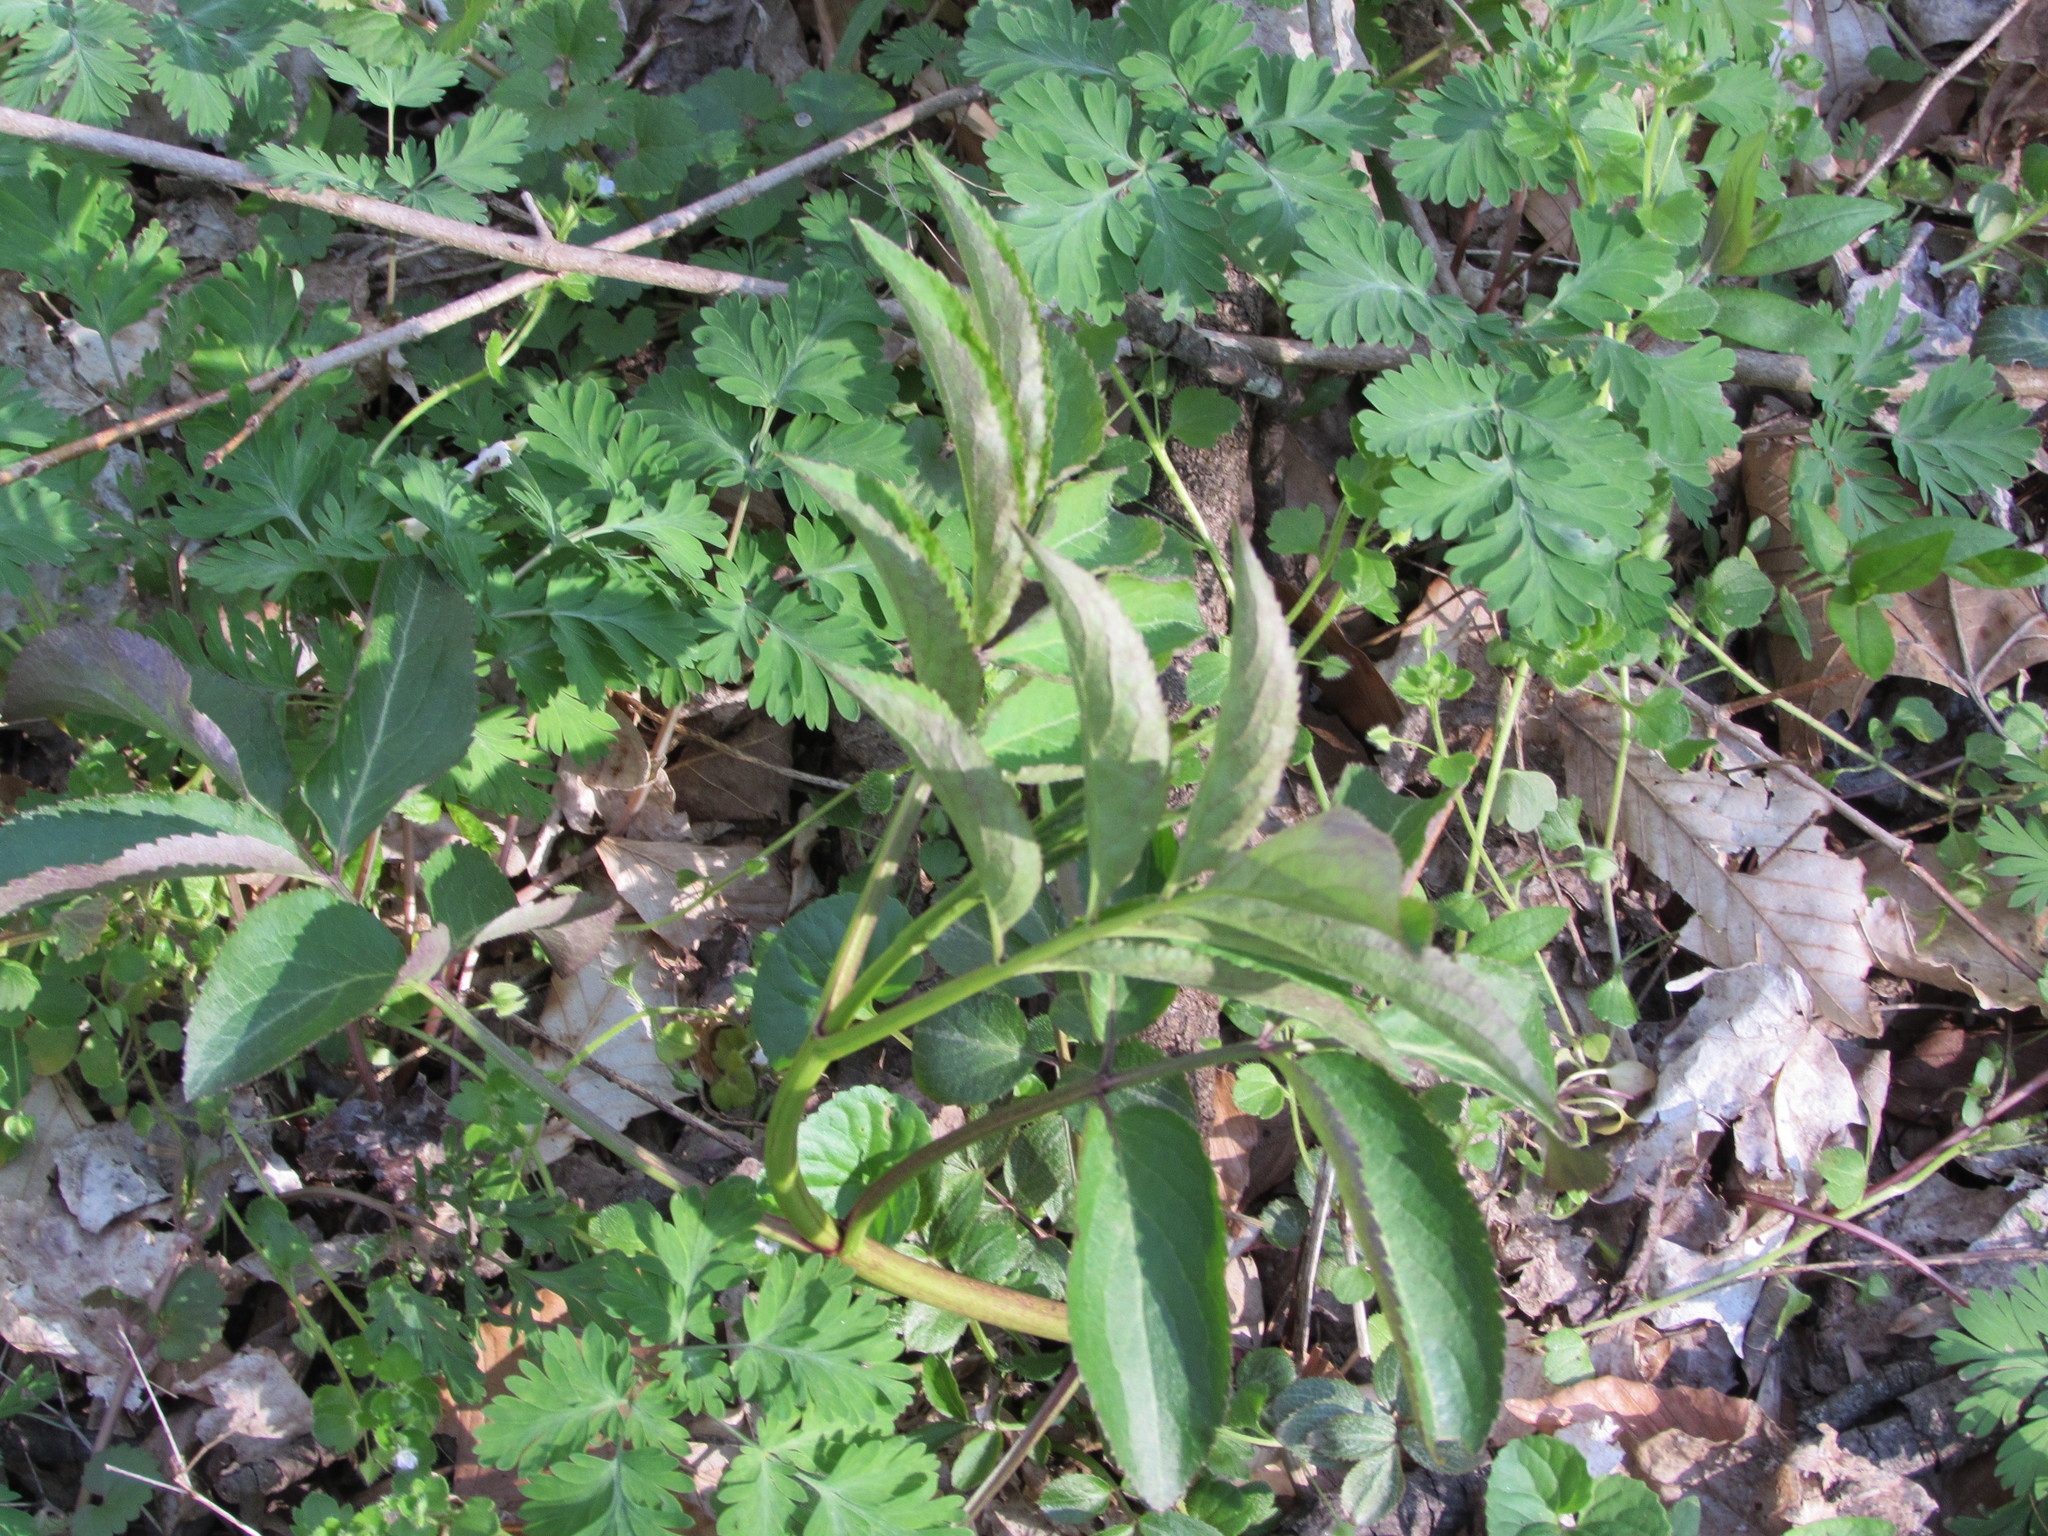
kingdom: Plantae
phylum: Tracheophyta
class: Magnoliopsida
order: Dipsacales
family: Viburnaceae
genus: Sambucus
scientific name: Sambucus canadensis
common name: American elder
